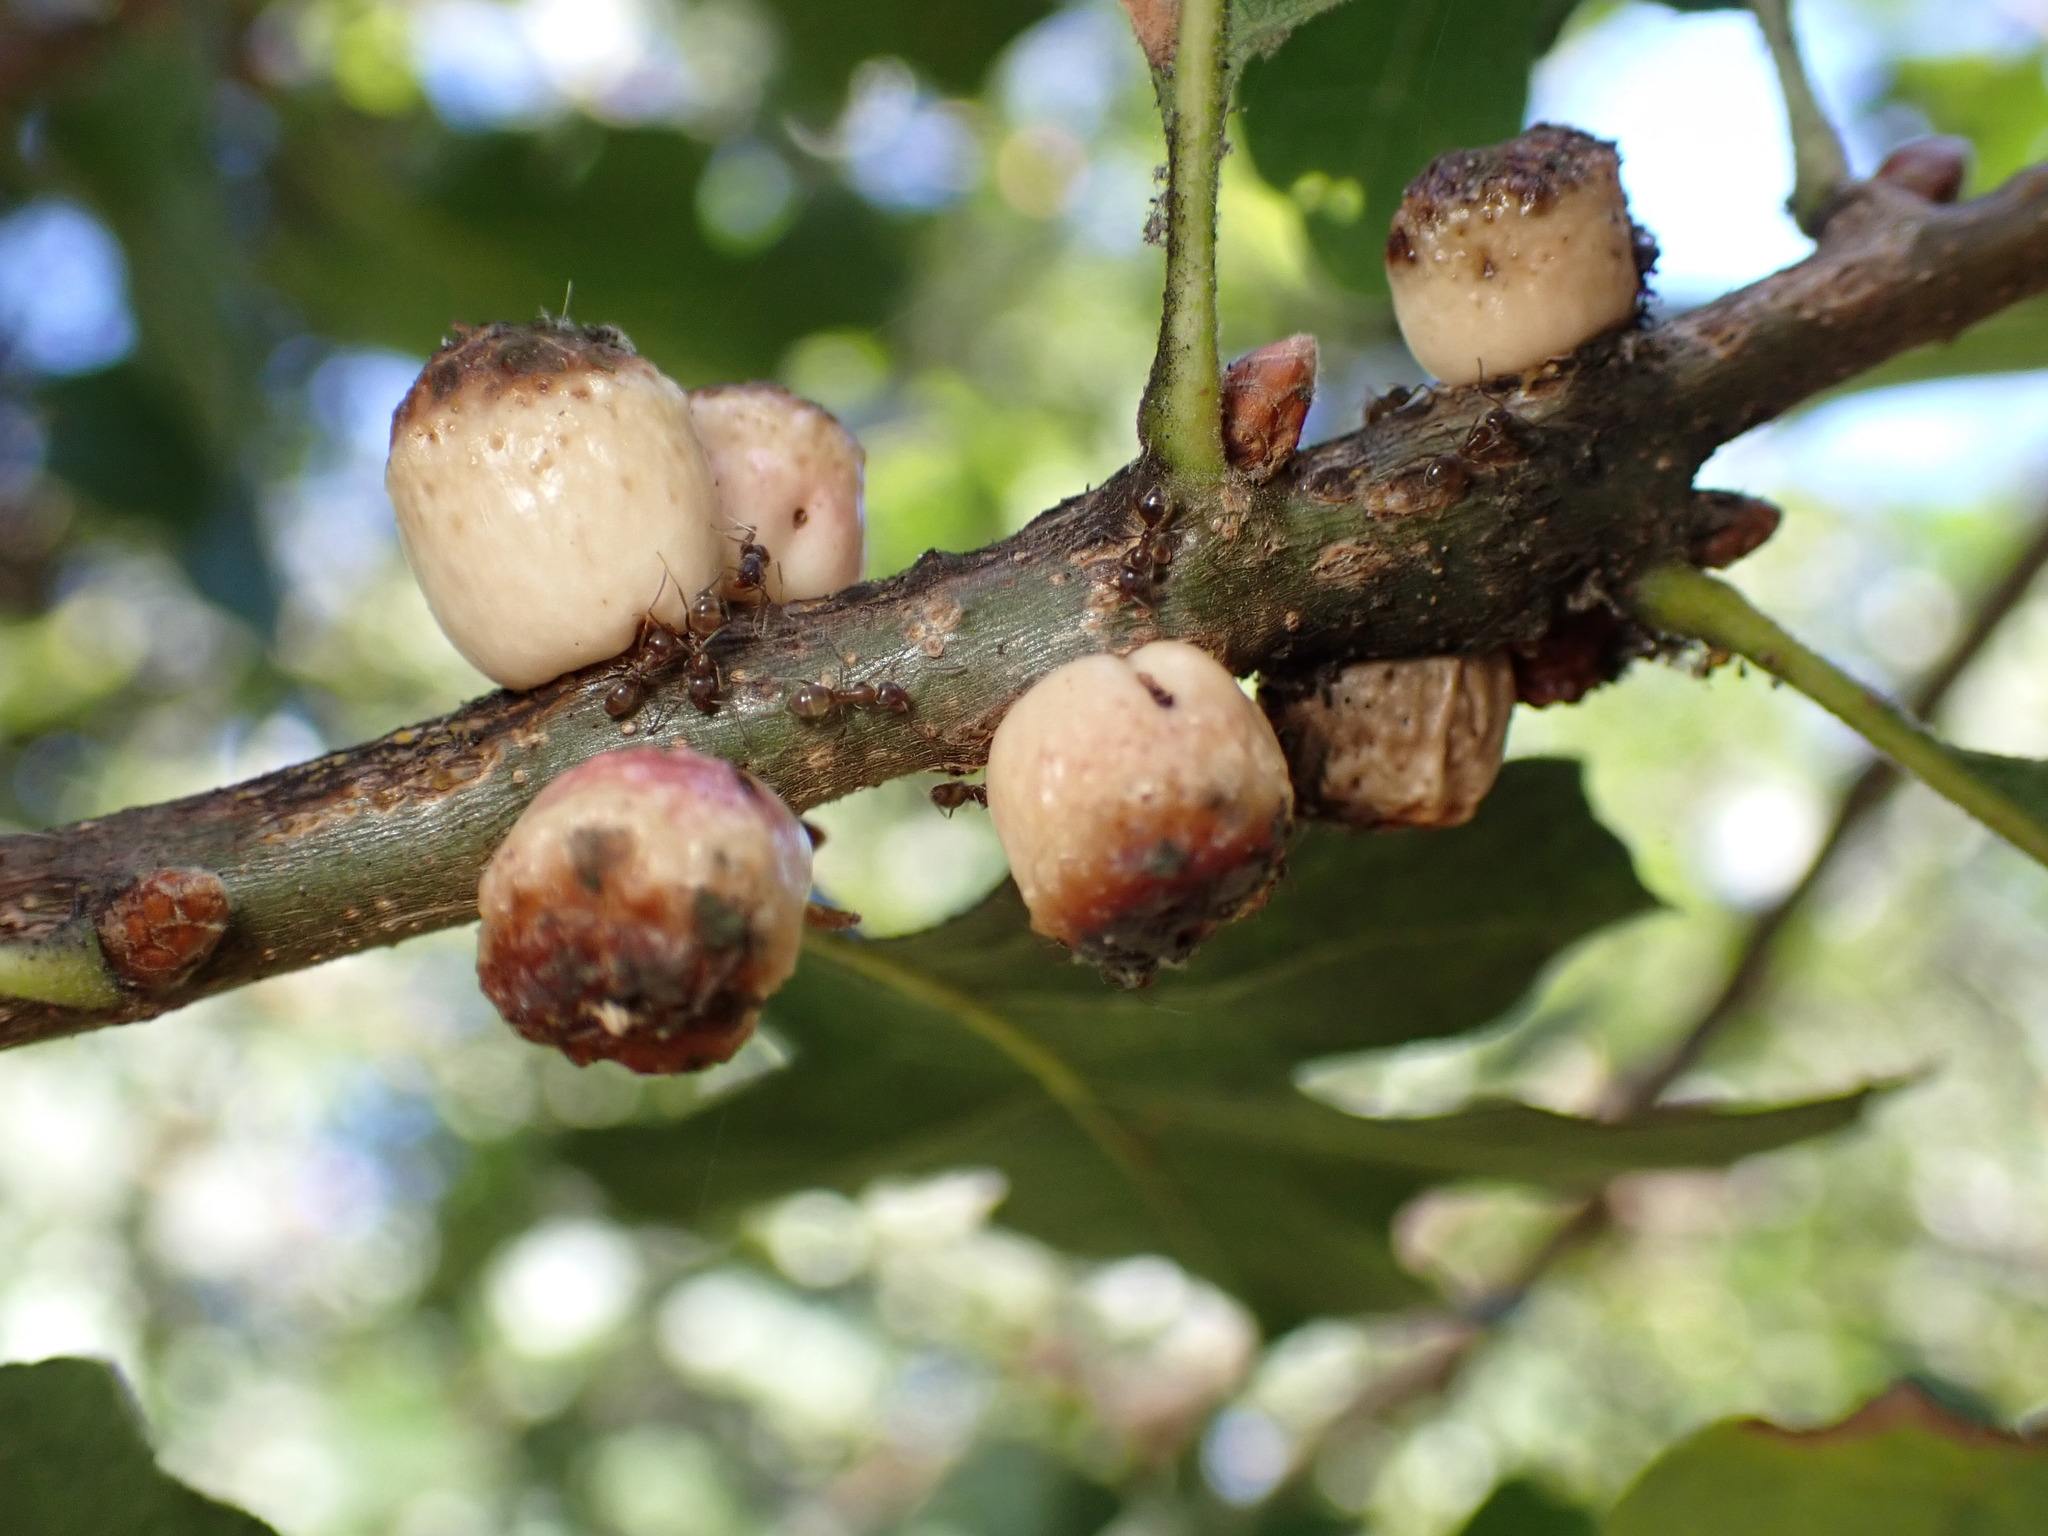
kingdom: Animalia
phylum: Arthropoda
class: Insecta
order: Hymenoptera
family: Cynipidae
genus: Disholcaspis
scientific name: Disholcaspis
